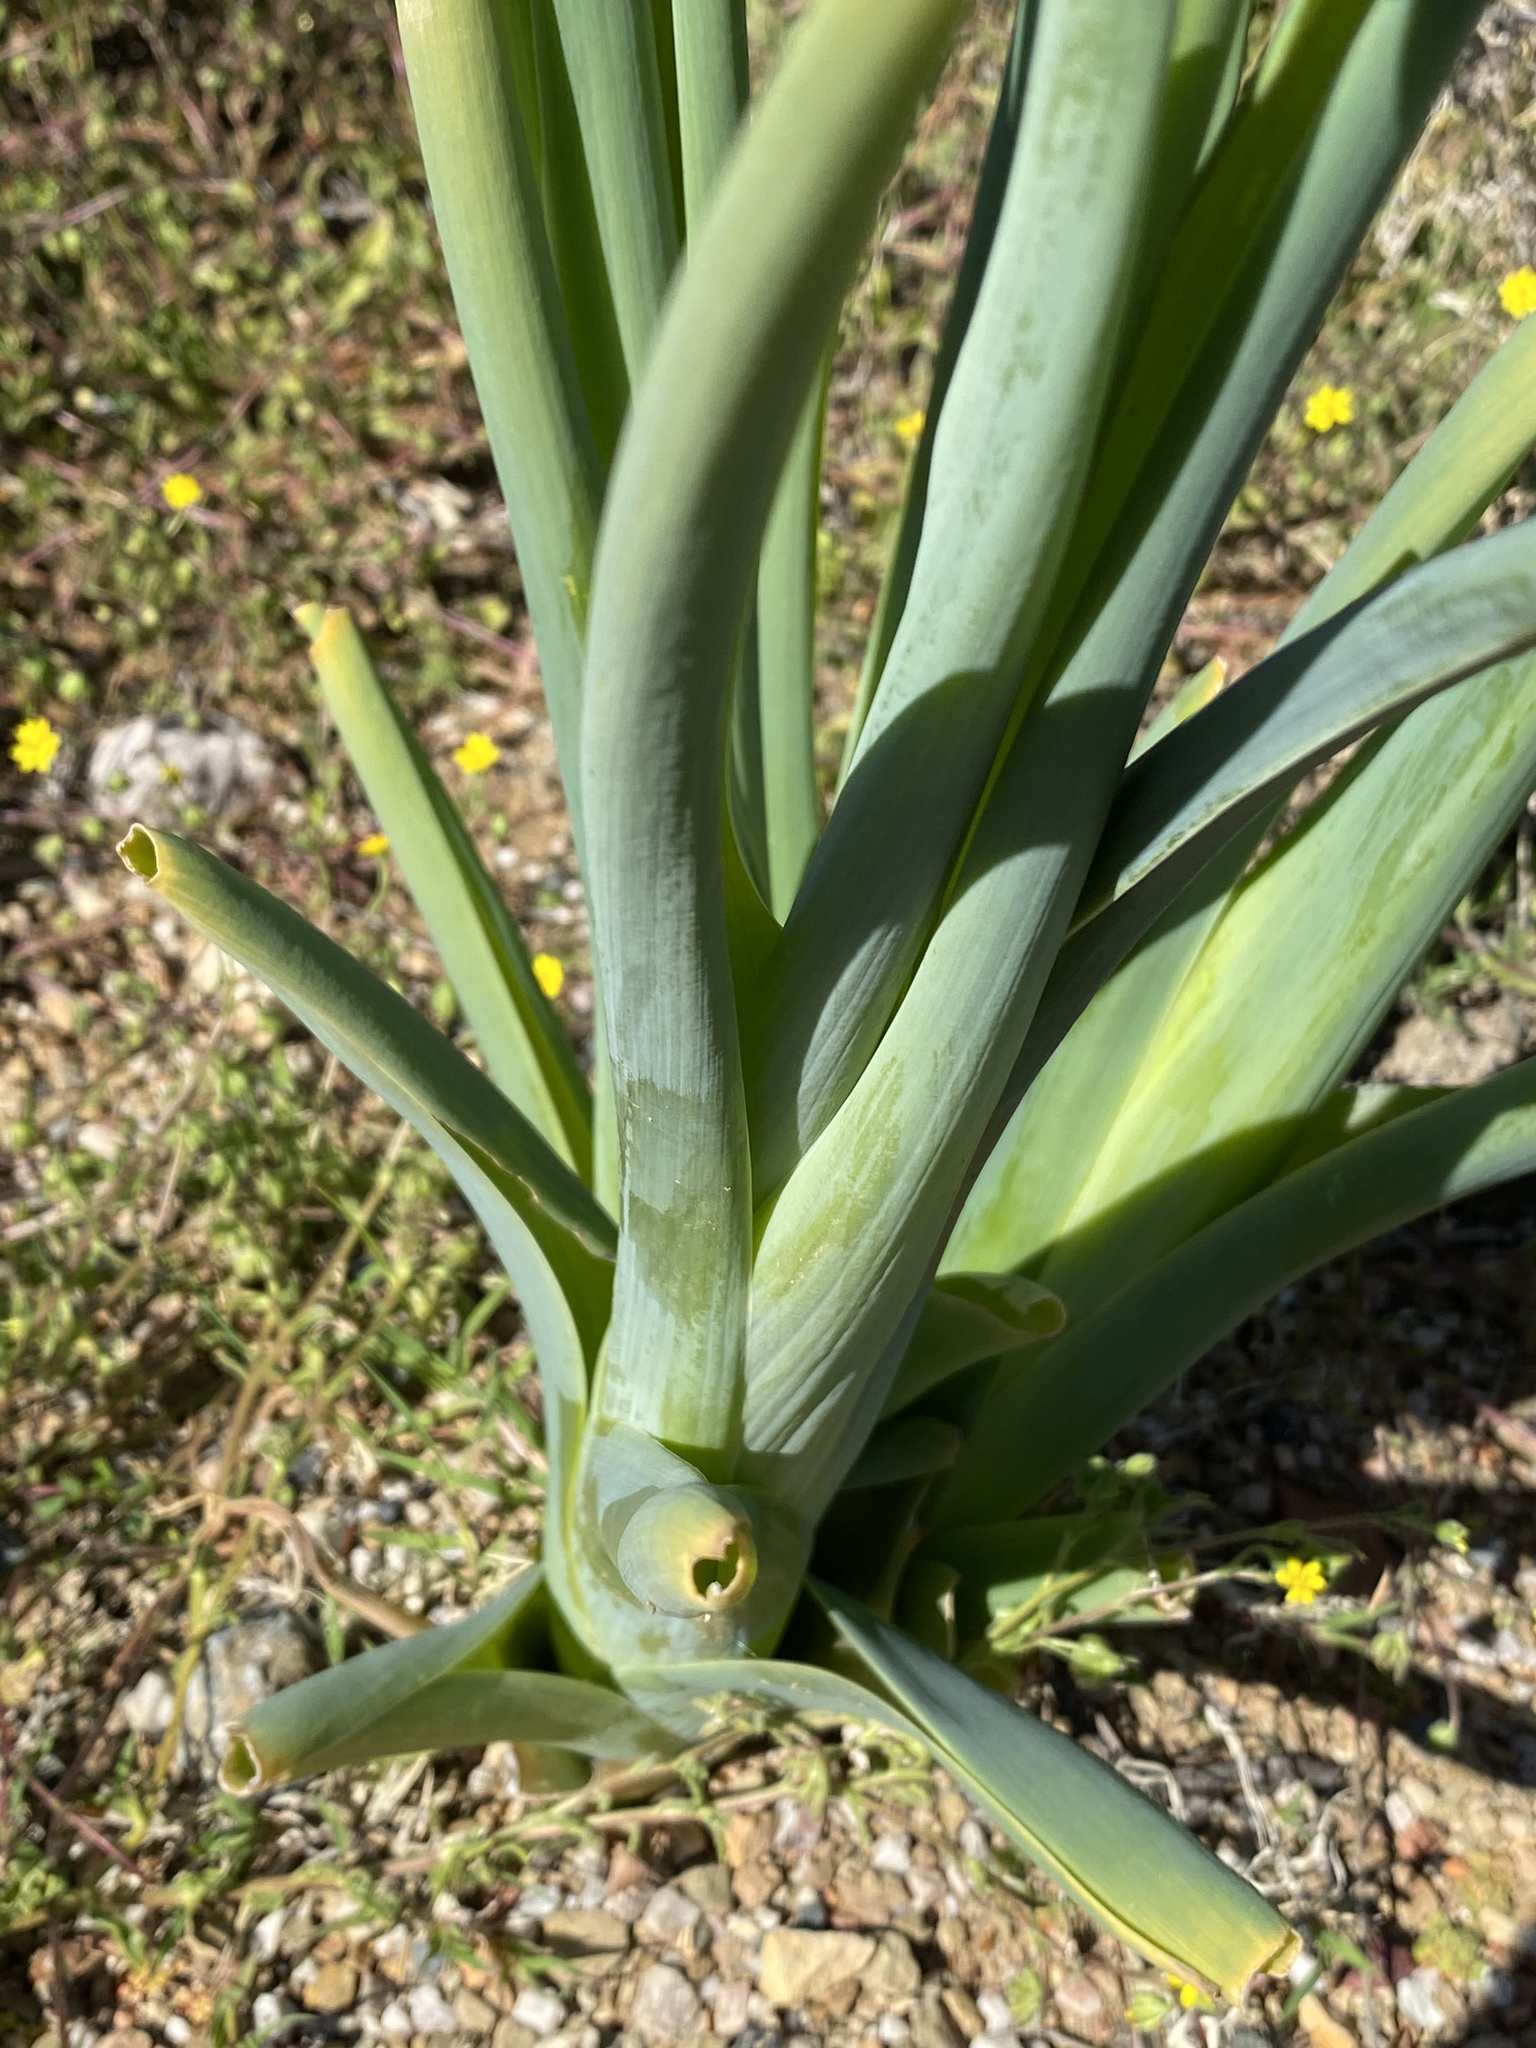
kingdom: Plantae
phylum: Tracheophyta
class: Liliopsida
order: Asparagales
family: Asparagaceae
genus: Albuca
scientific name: Albuca canadensis
